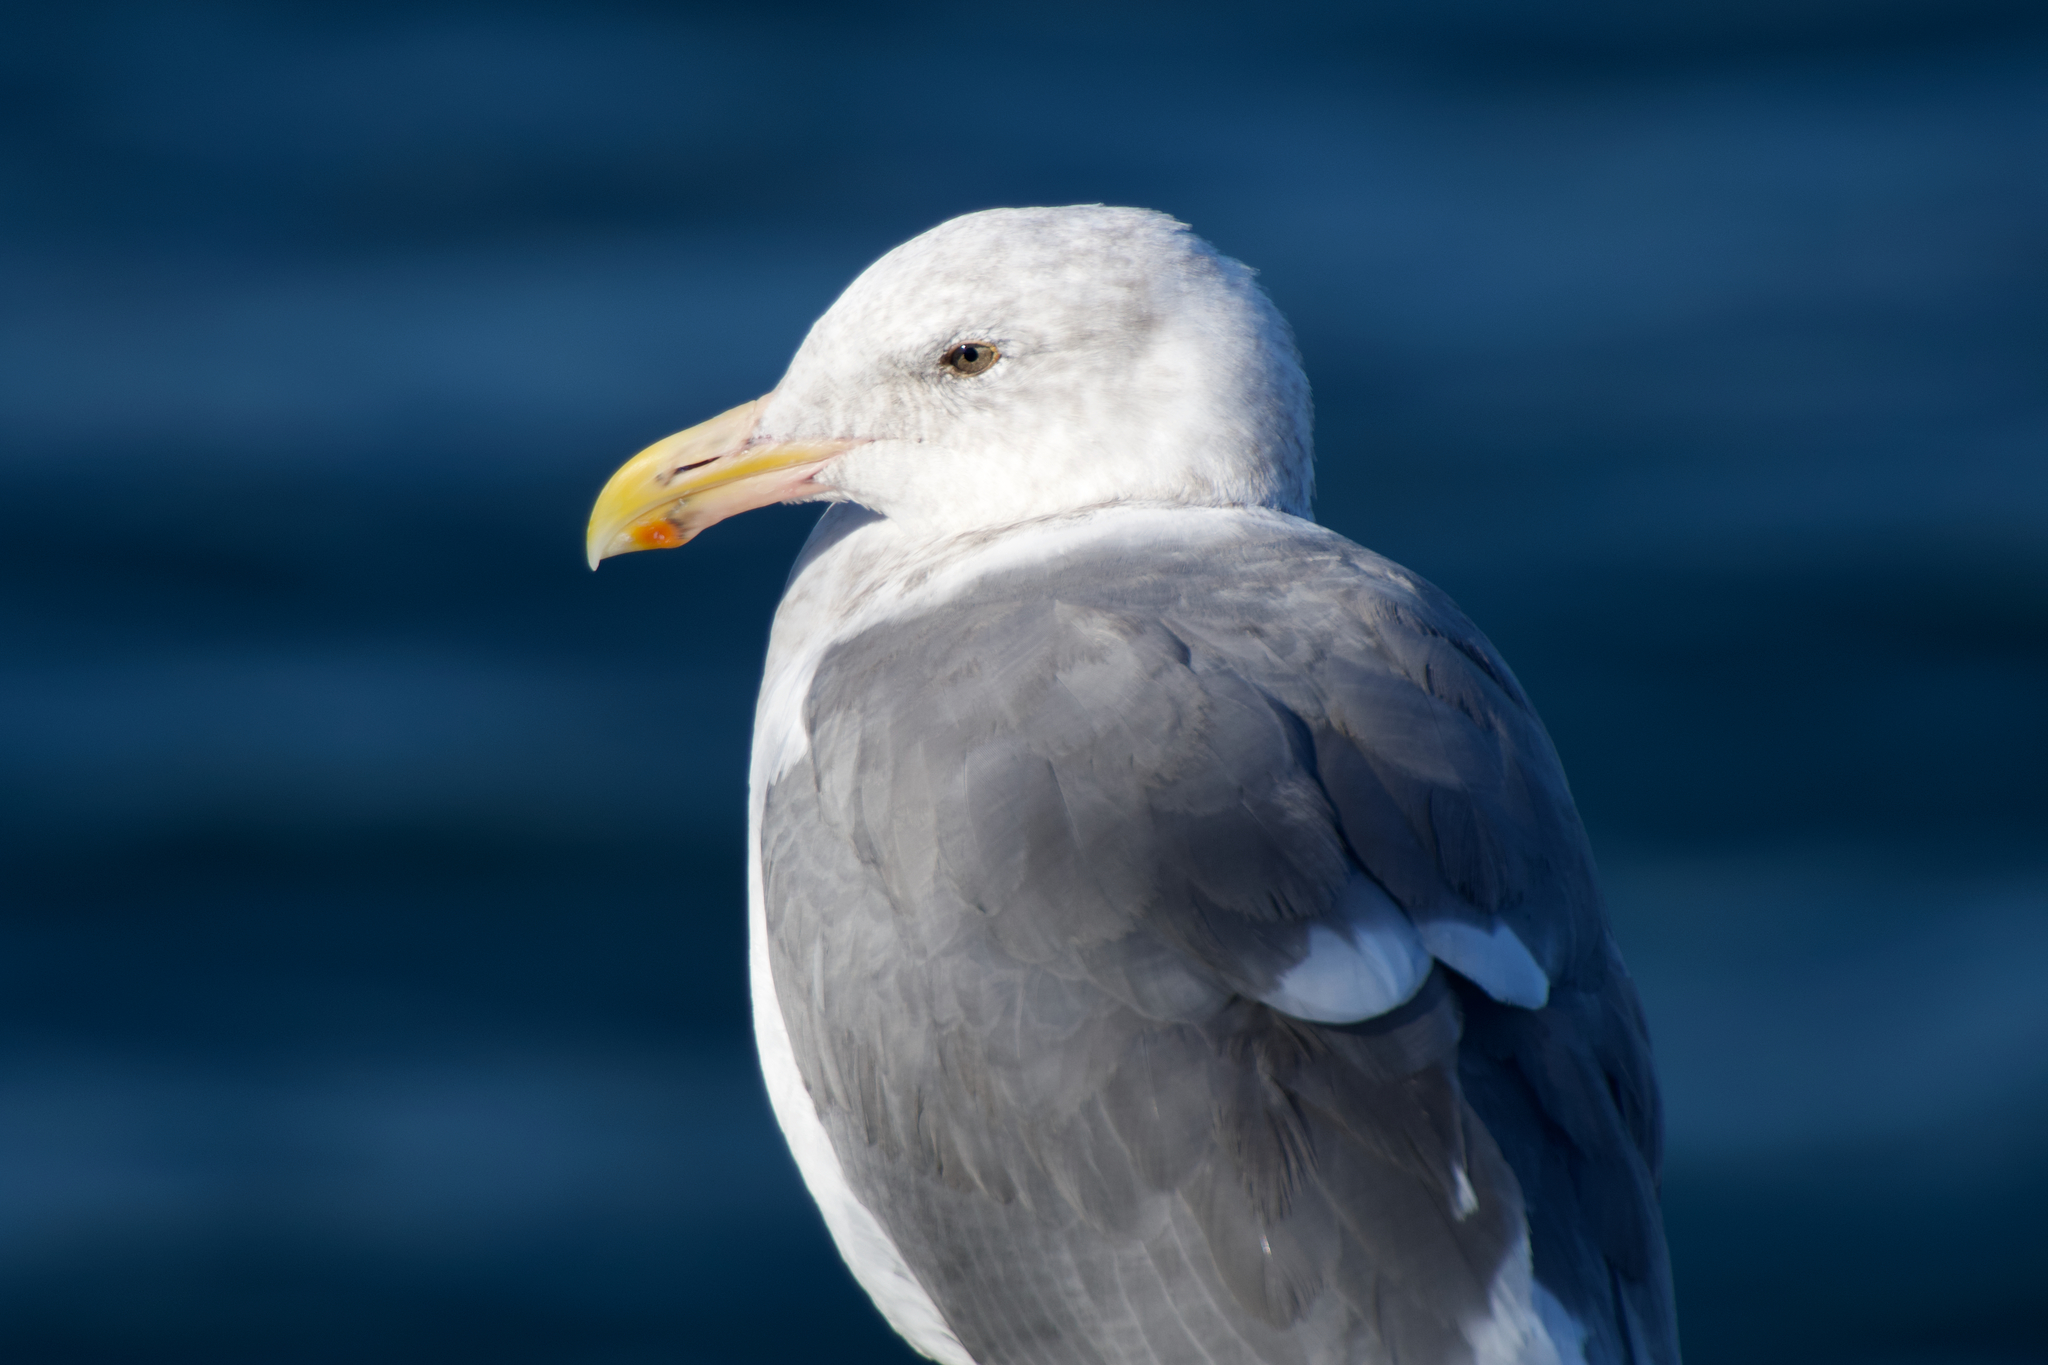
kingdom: Animalia
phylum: Chordata
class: Aves
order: Charadriiformes
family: Laridae
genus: Larus
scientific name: Larus occidentalis
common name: Western gull
